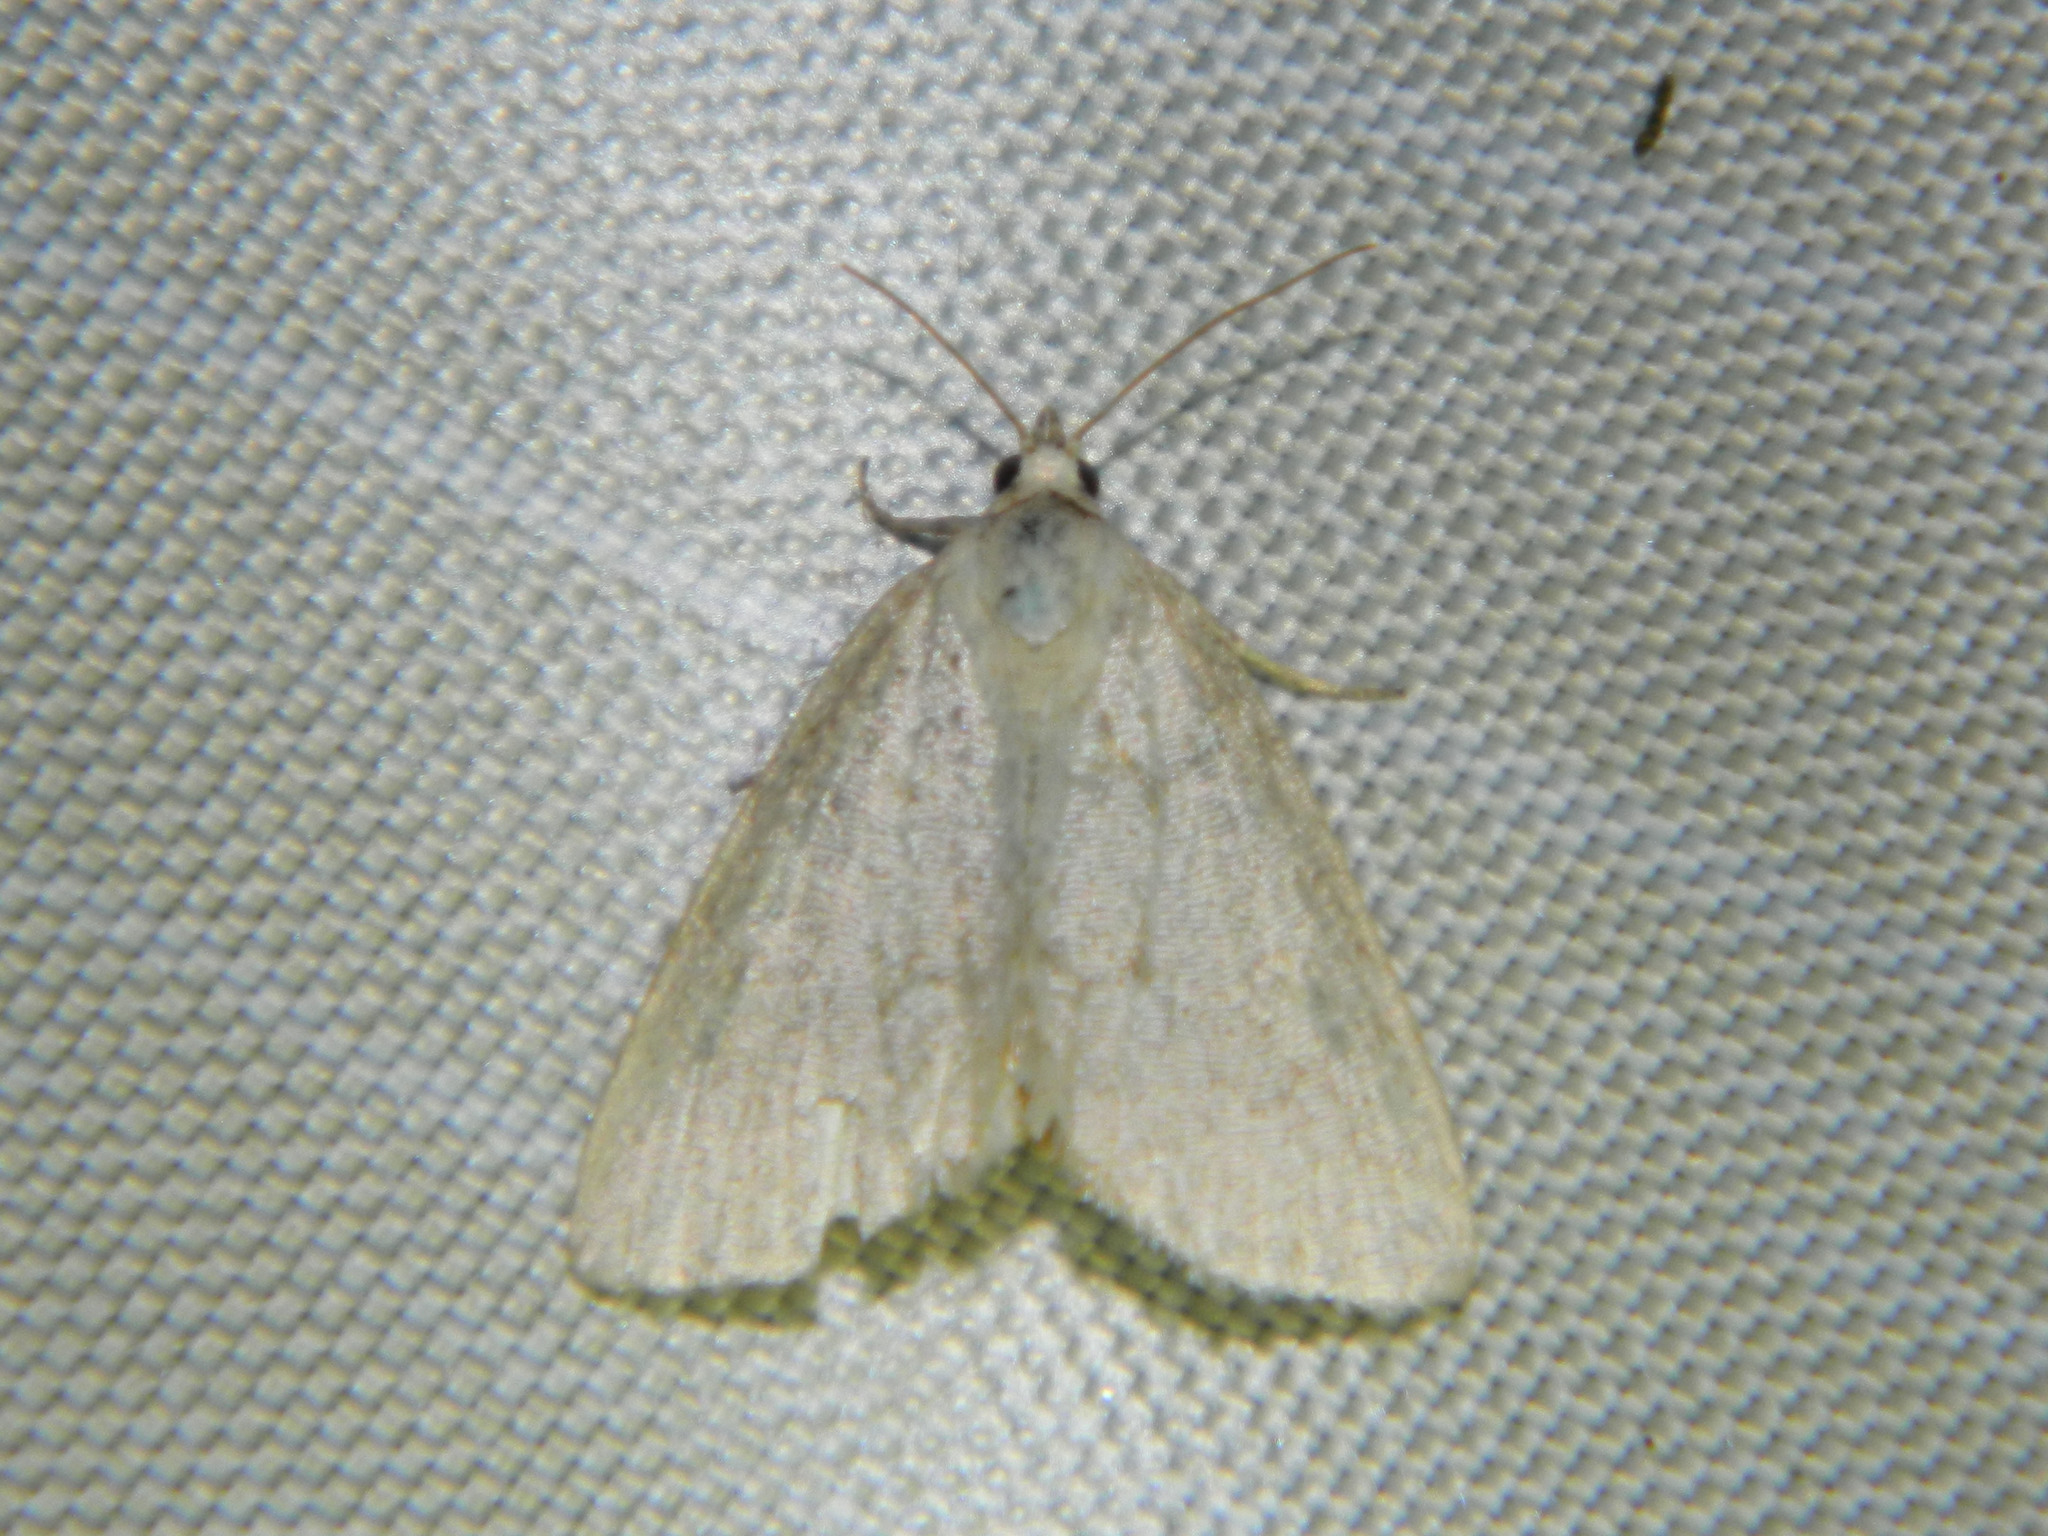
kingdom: Animalia
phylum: Arthropoda
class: Insecta
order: Lepidoptera
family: Noctuidae
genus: Protodeltote
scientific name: Protodeltote albidula
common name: Pale glyph
